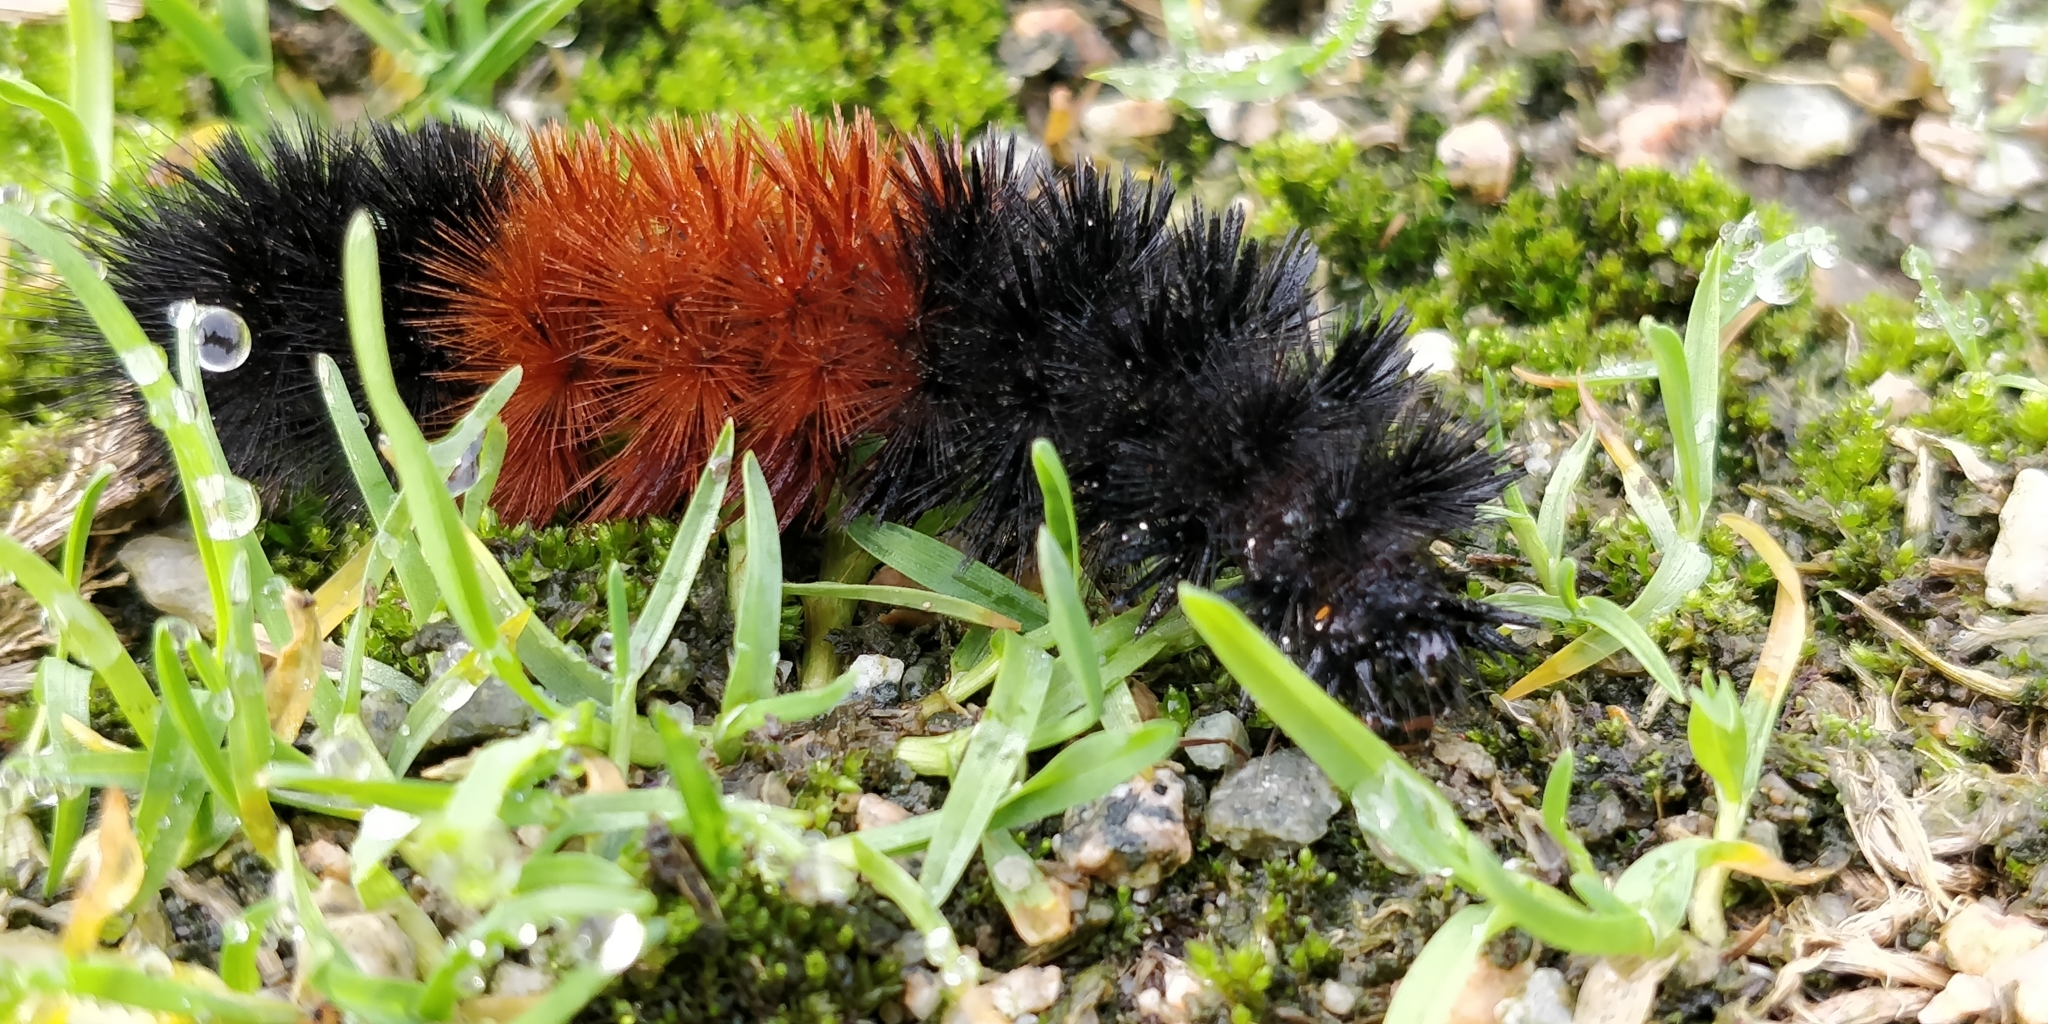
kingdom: Animalia
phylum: Arthropoda
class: Insecta
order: Lepidoptera
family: Erebidae
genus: Pyrrharctia
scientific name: Pyrrharctia isabella
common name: Isabella tiger moth
